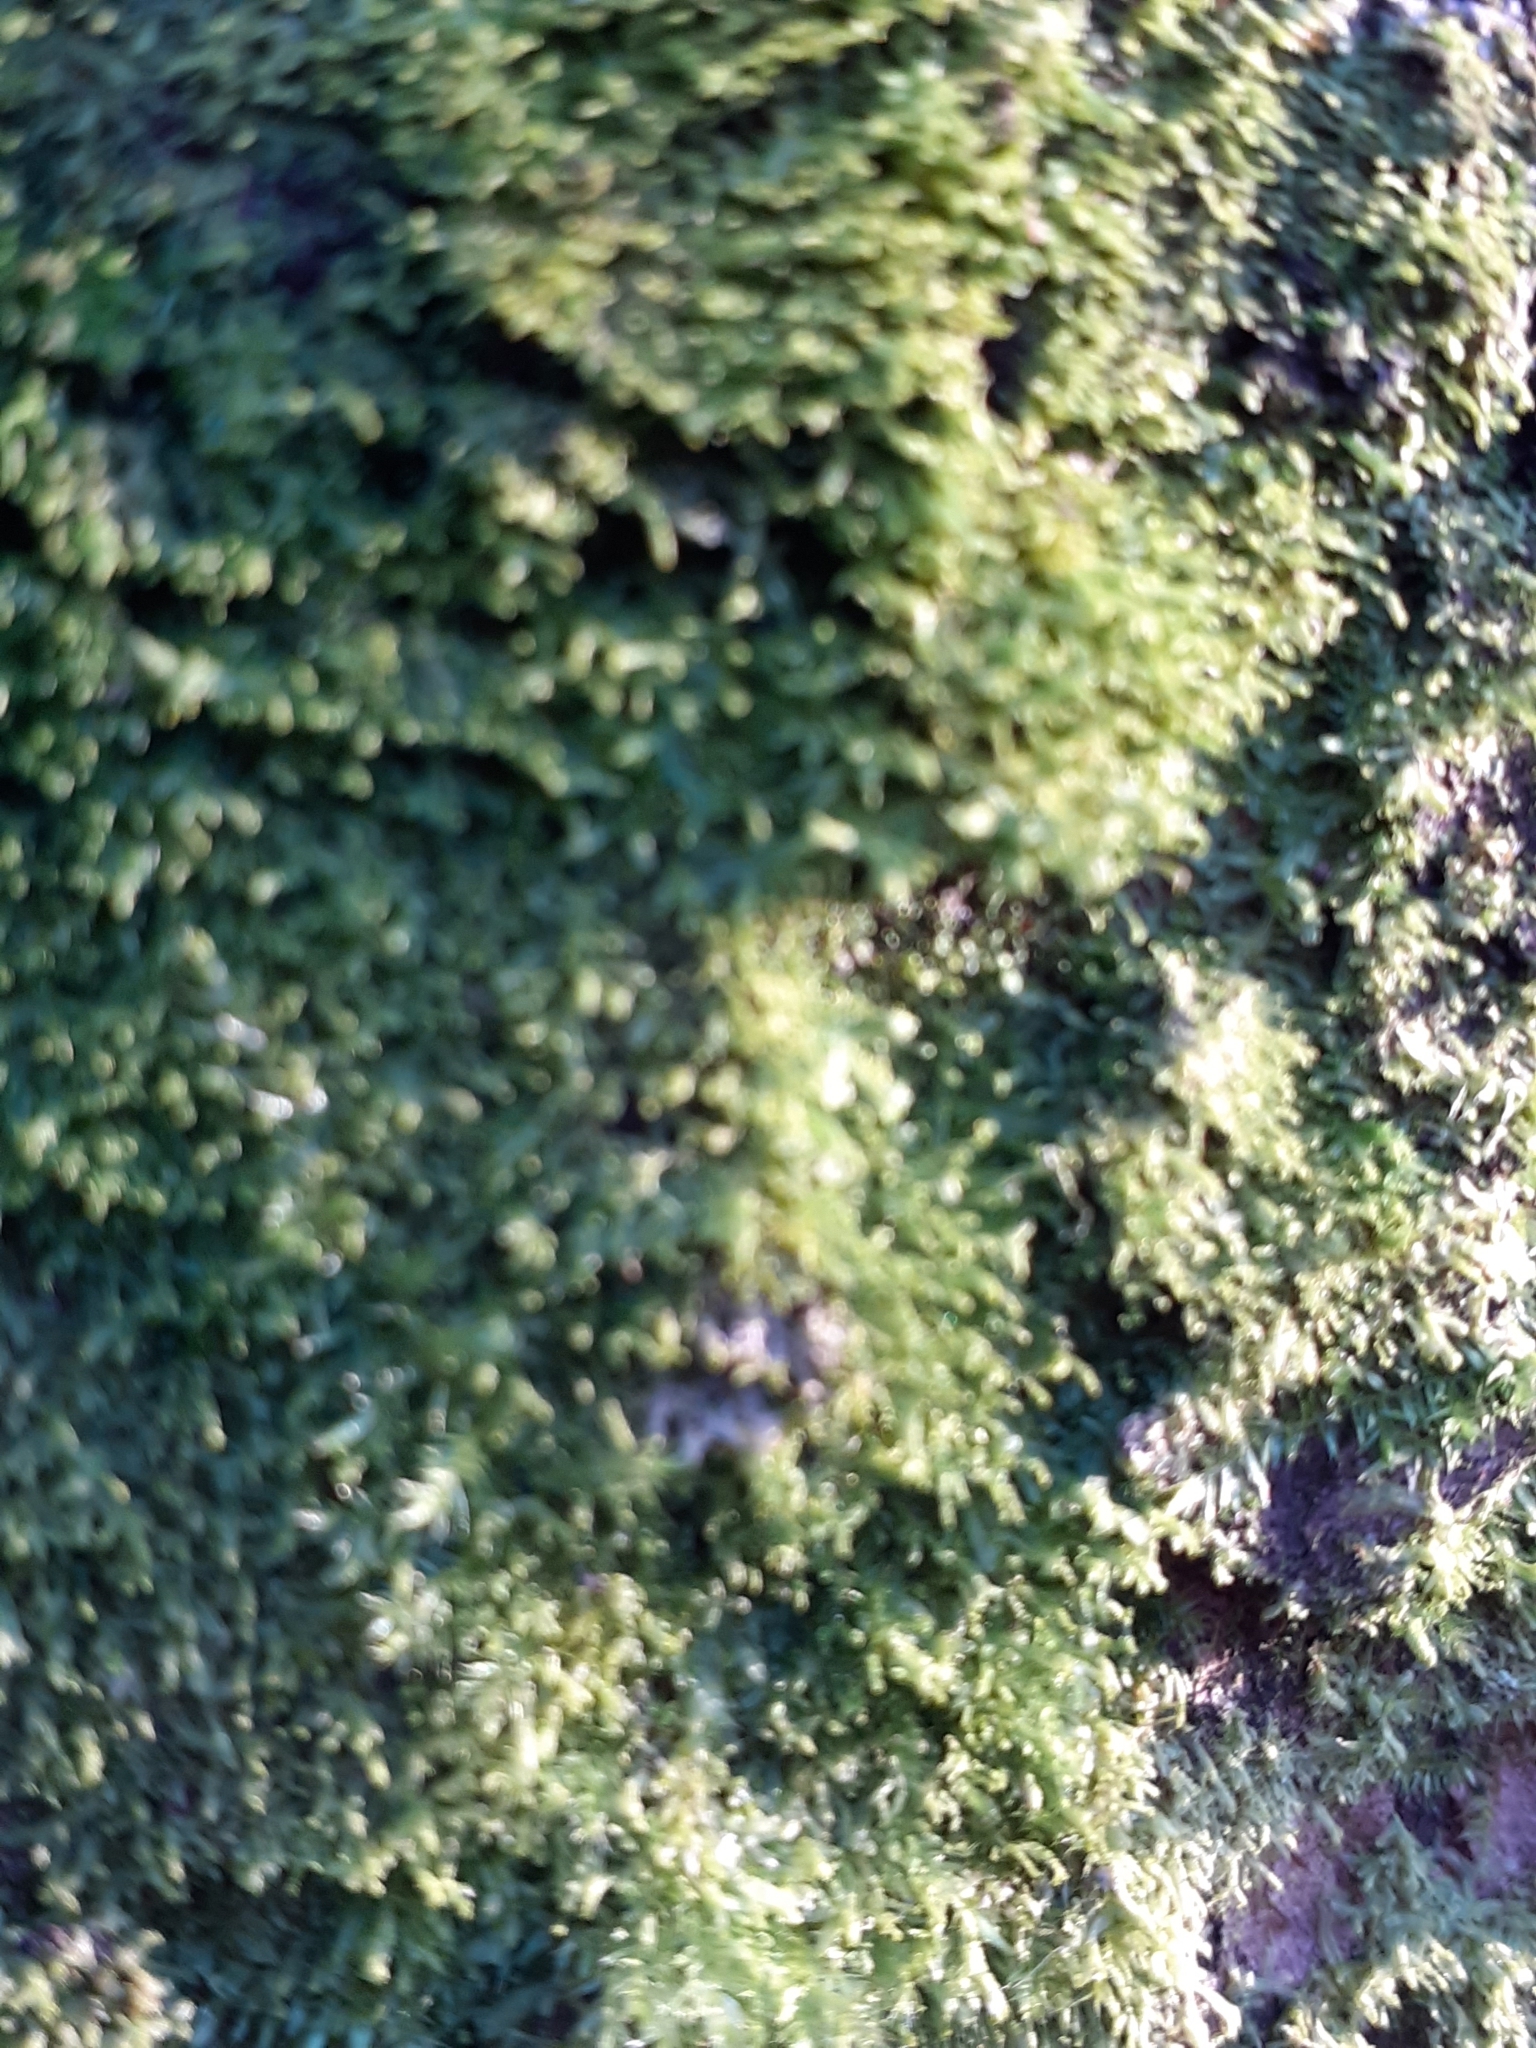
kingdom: Plantae
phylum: Marchantiophyta
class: Jungermanniopsida
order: Metzgeriales
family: Metzgeriaceae
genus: Metzgeria
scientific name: Metzgeria furcata
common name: Forked veilwort
